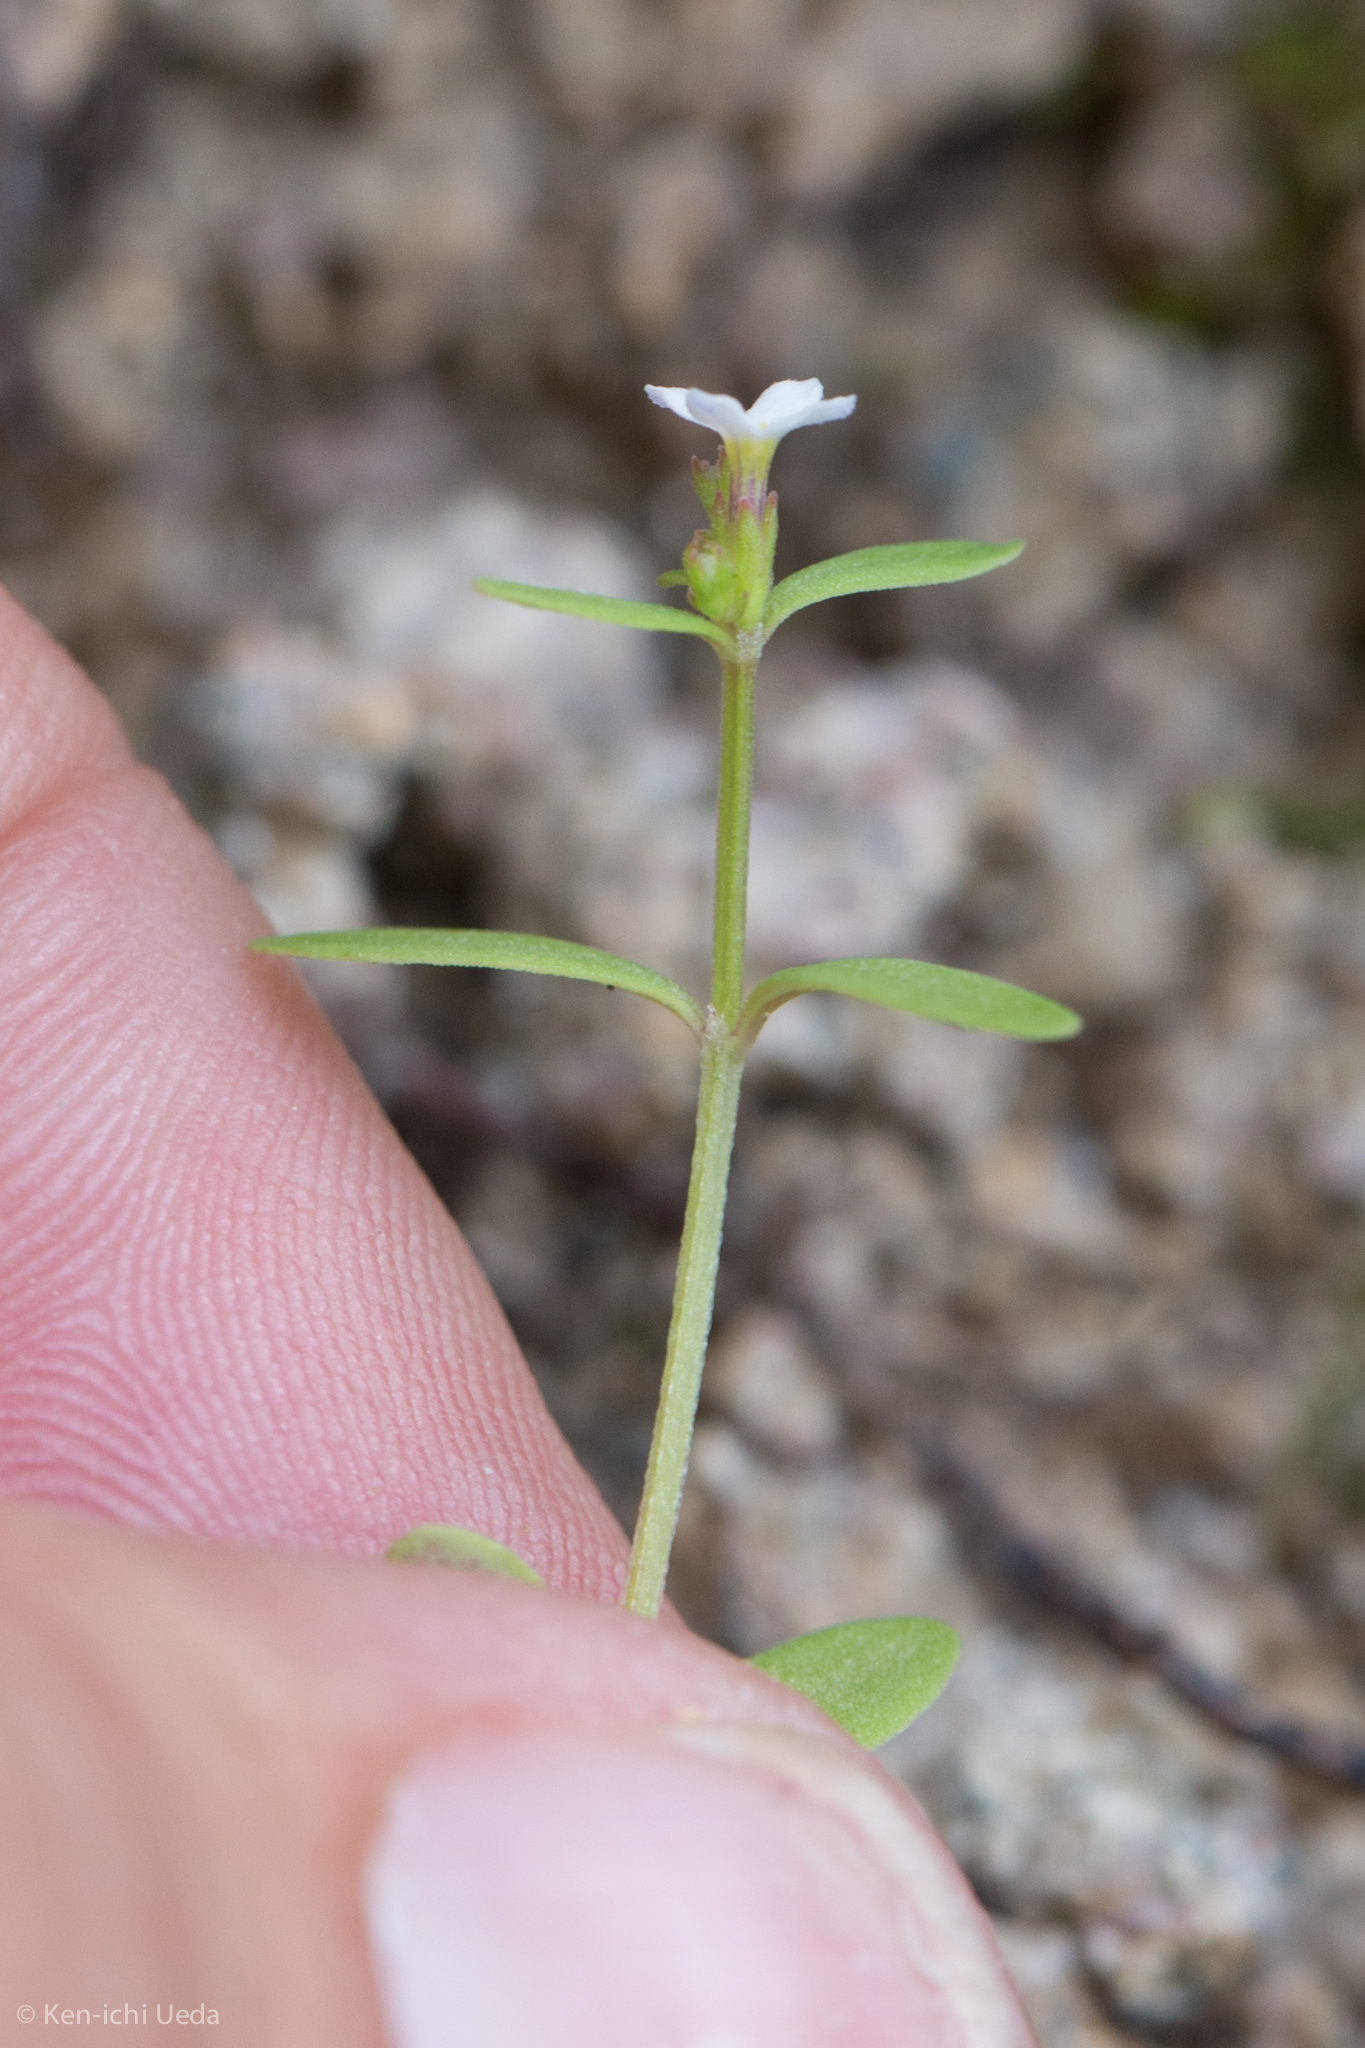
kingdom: Plantae
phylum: Tracheophyta
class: Magnoliopsida
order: Gentianales
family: Rubiaceae
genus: Stenotis
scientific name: Stenotis greenei
